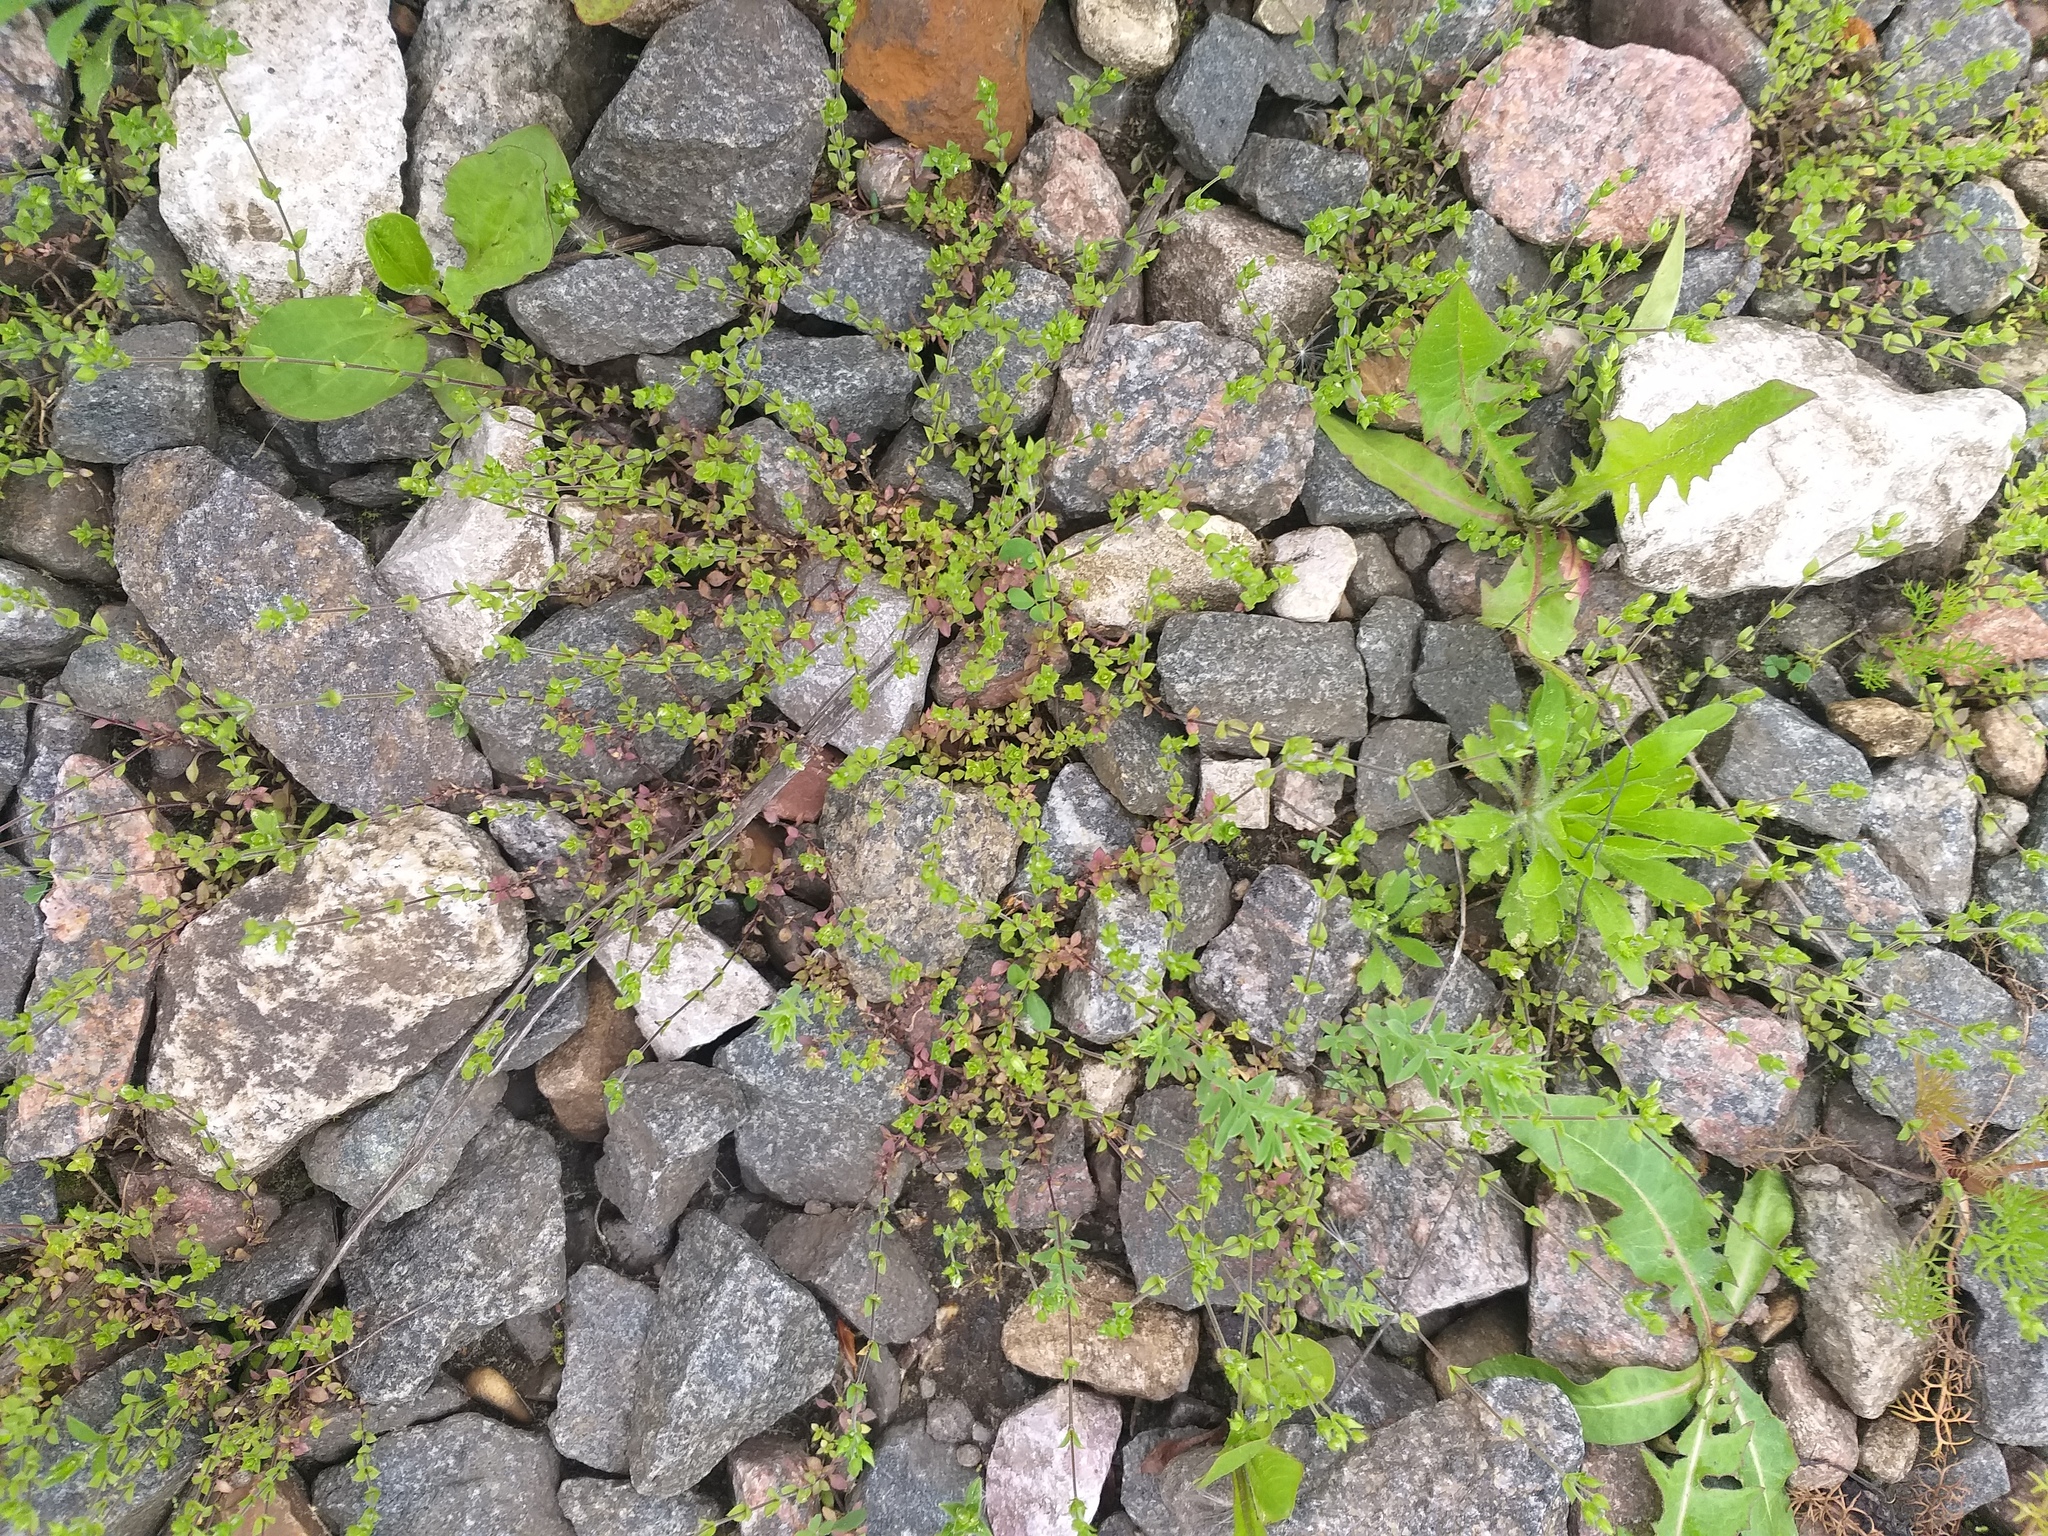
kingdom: Plantae
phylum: Tracheophyta
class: Magnoliopsida
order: Caryophyllales
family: Caryophyllaceae
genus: Arenaria
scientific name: Arenaria serpyllifolia
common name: Thyme-leaved sandwort
